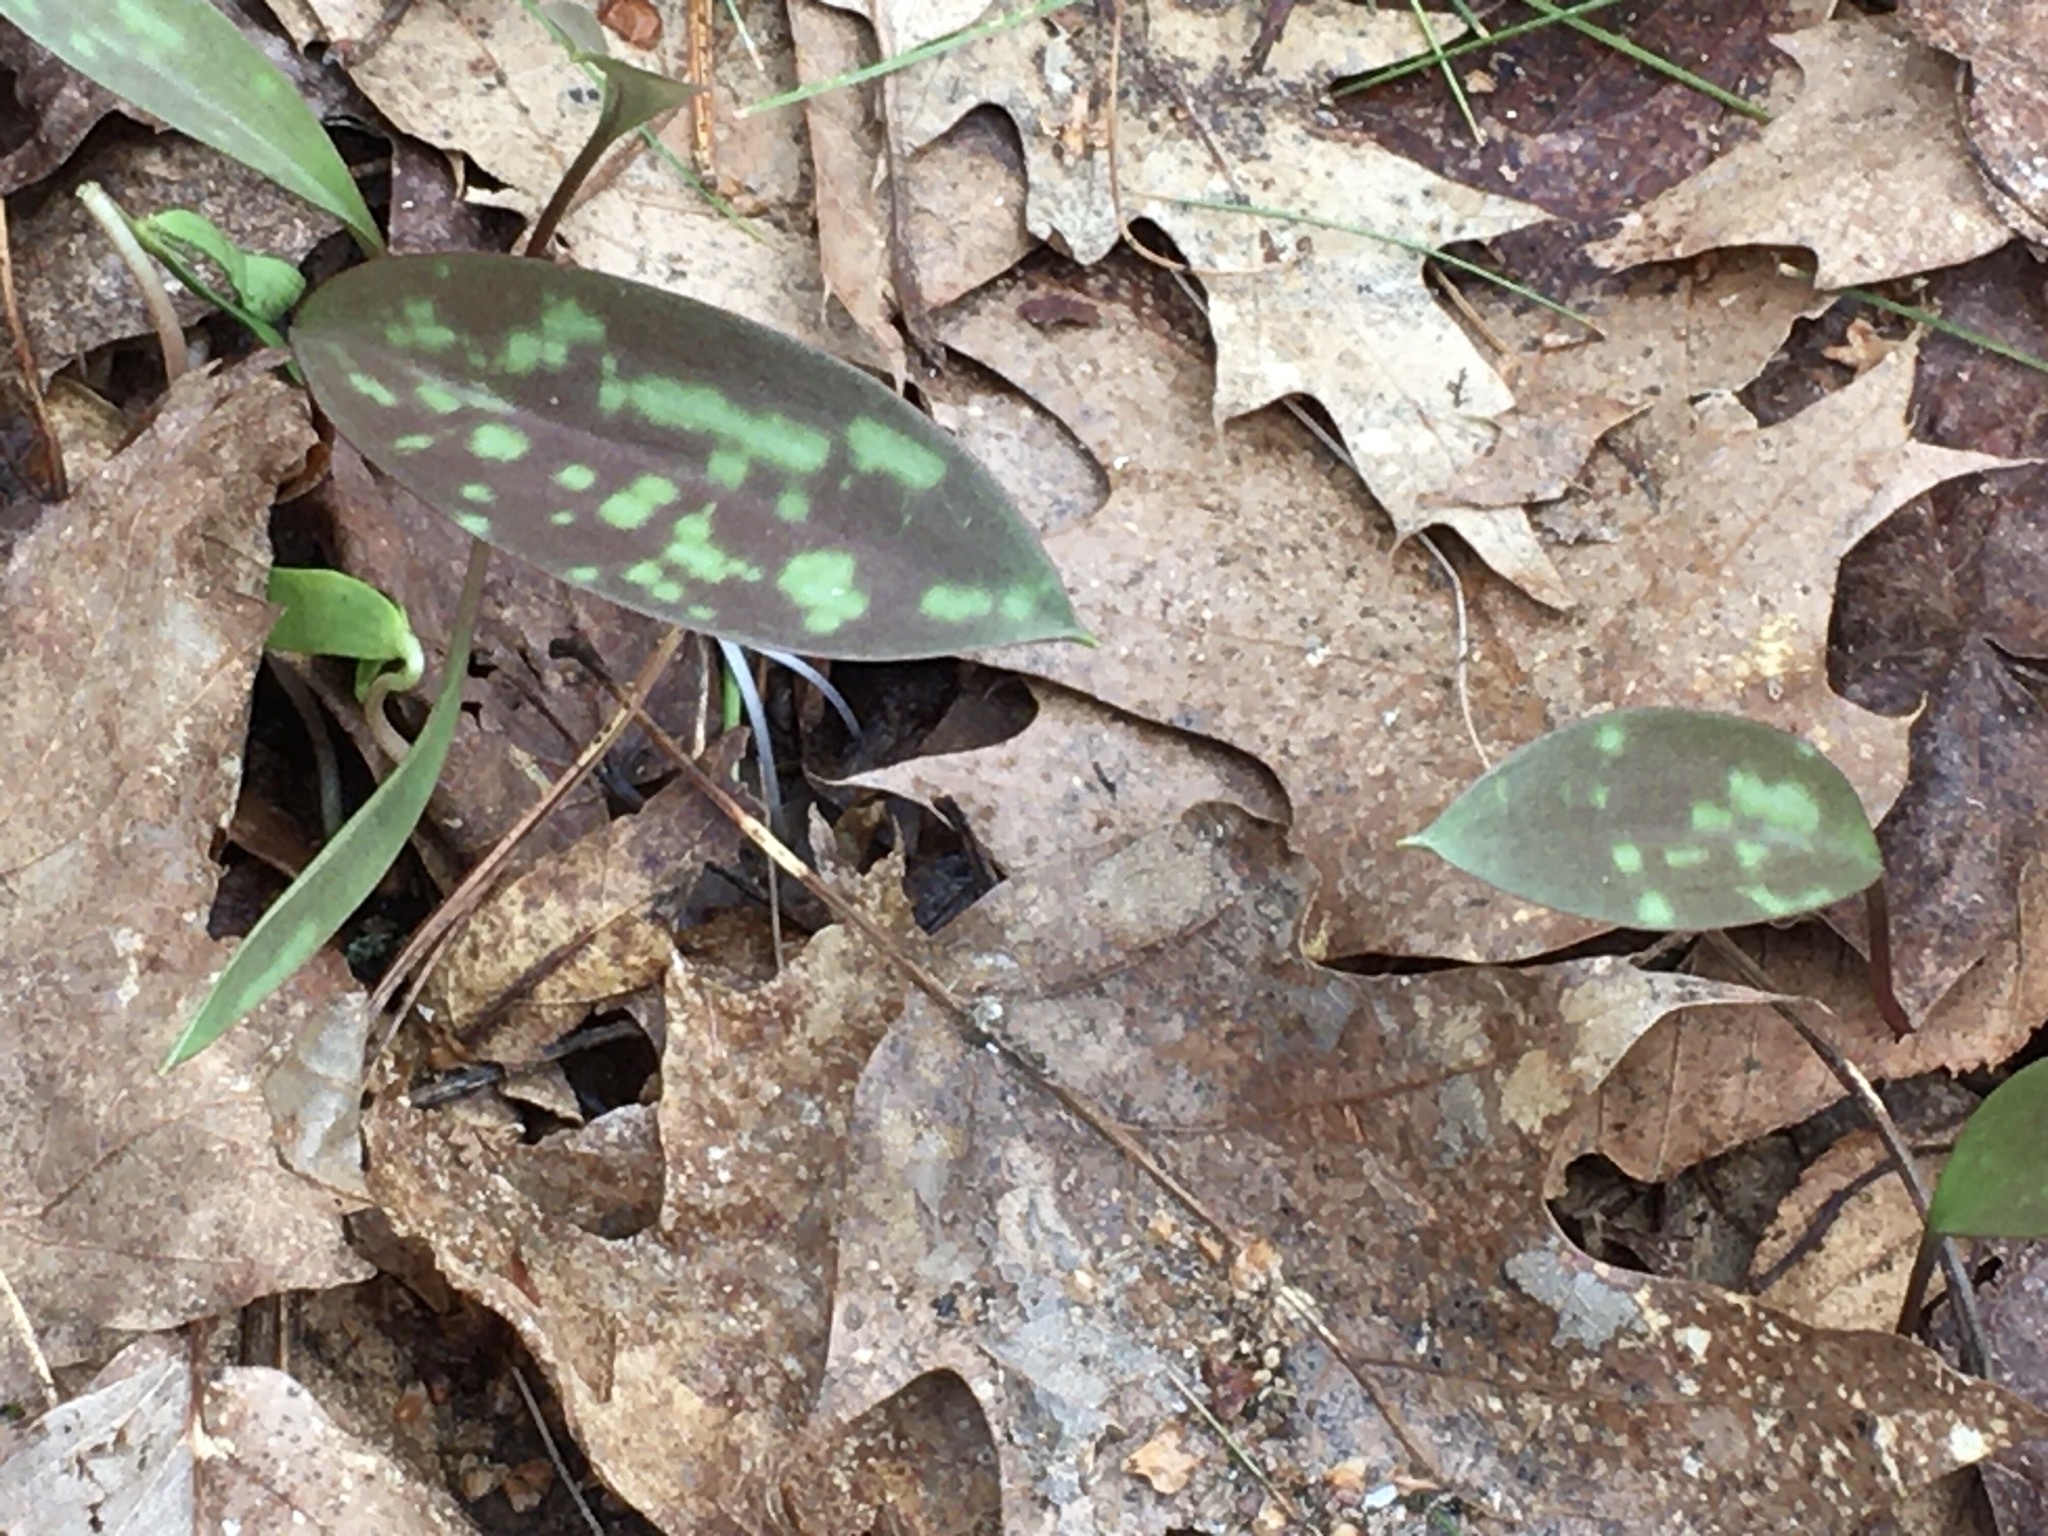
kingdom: Plantae
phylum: Tracheophyta
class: Liliopsida
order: Liliales
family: Liliaceae
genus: Erythronium
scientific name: Erythronium americanum
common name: Yellow adder's-tongue
